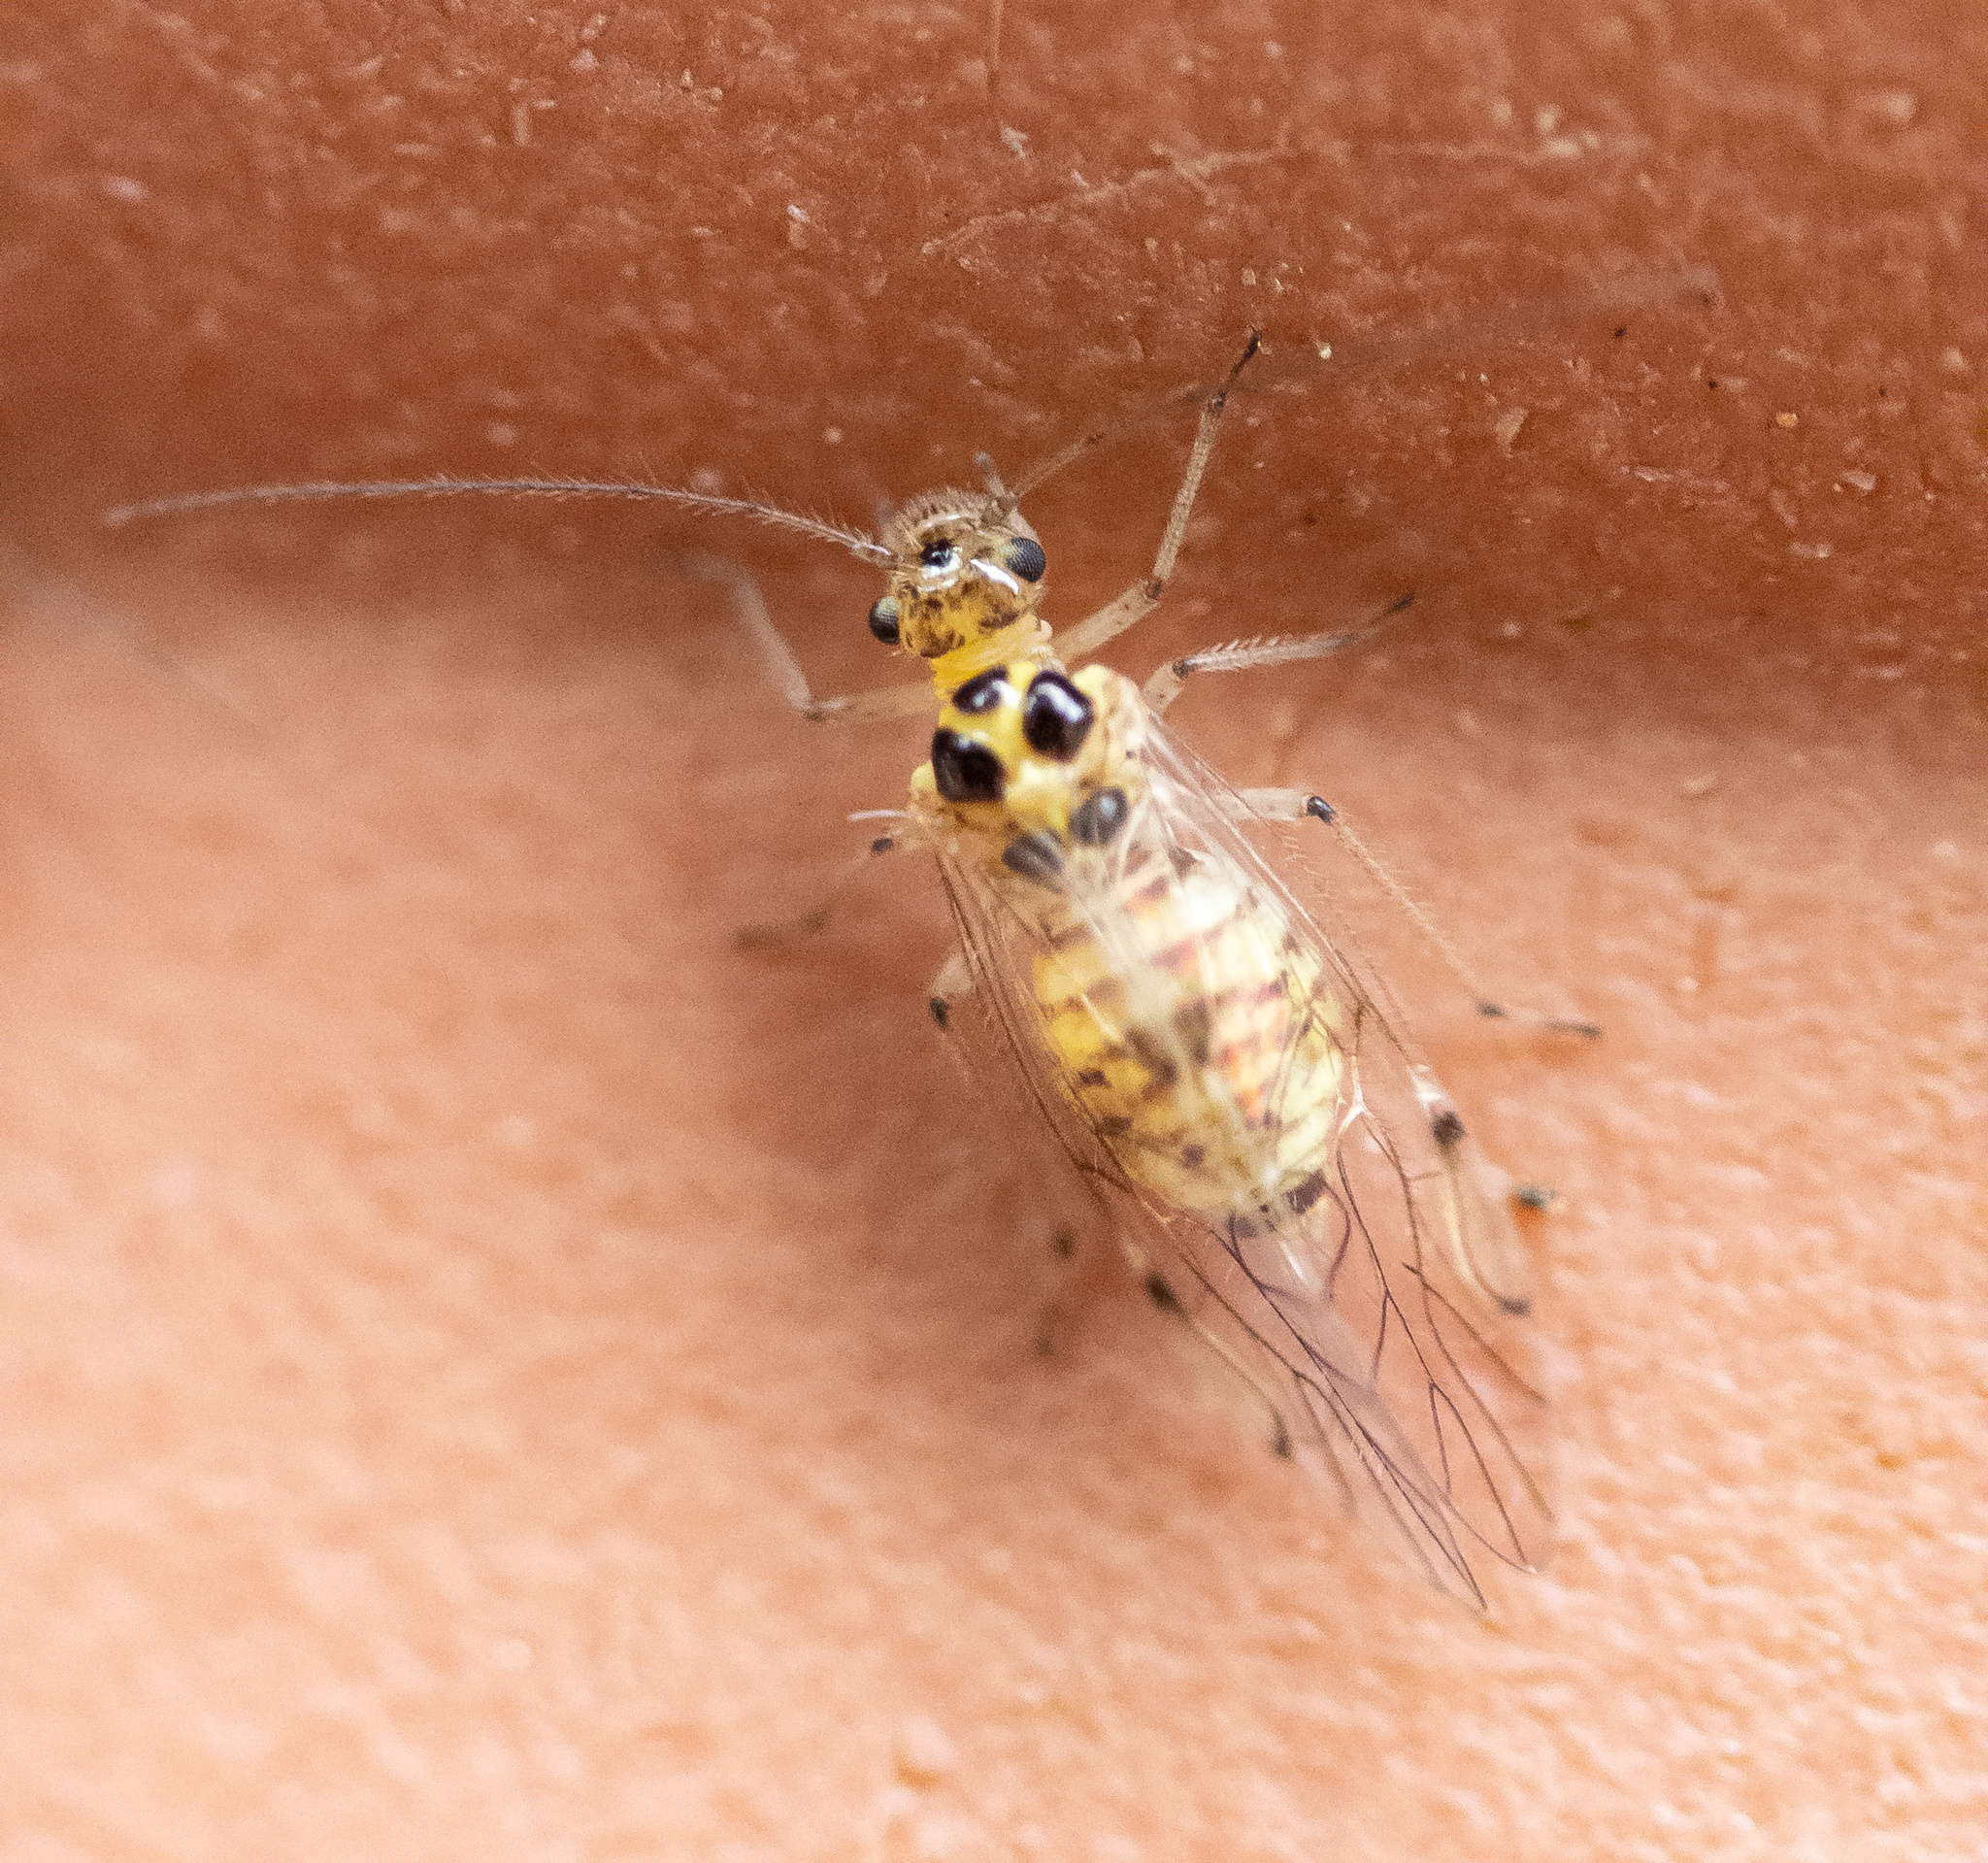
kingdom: Animalia
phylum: Arthropoda
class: Insecta
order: Psocodea
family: Dasydemellidae
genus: Teliapsocus
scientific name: Teliapsocus conterminus
